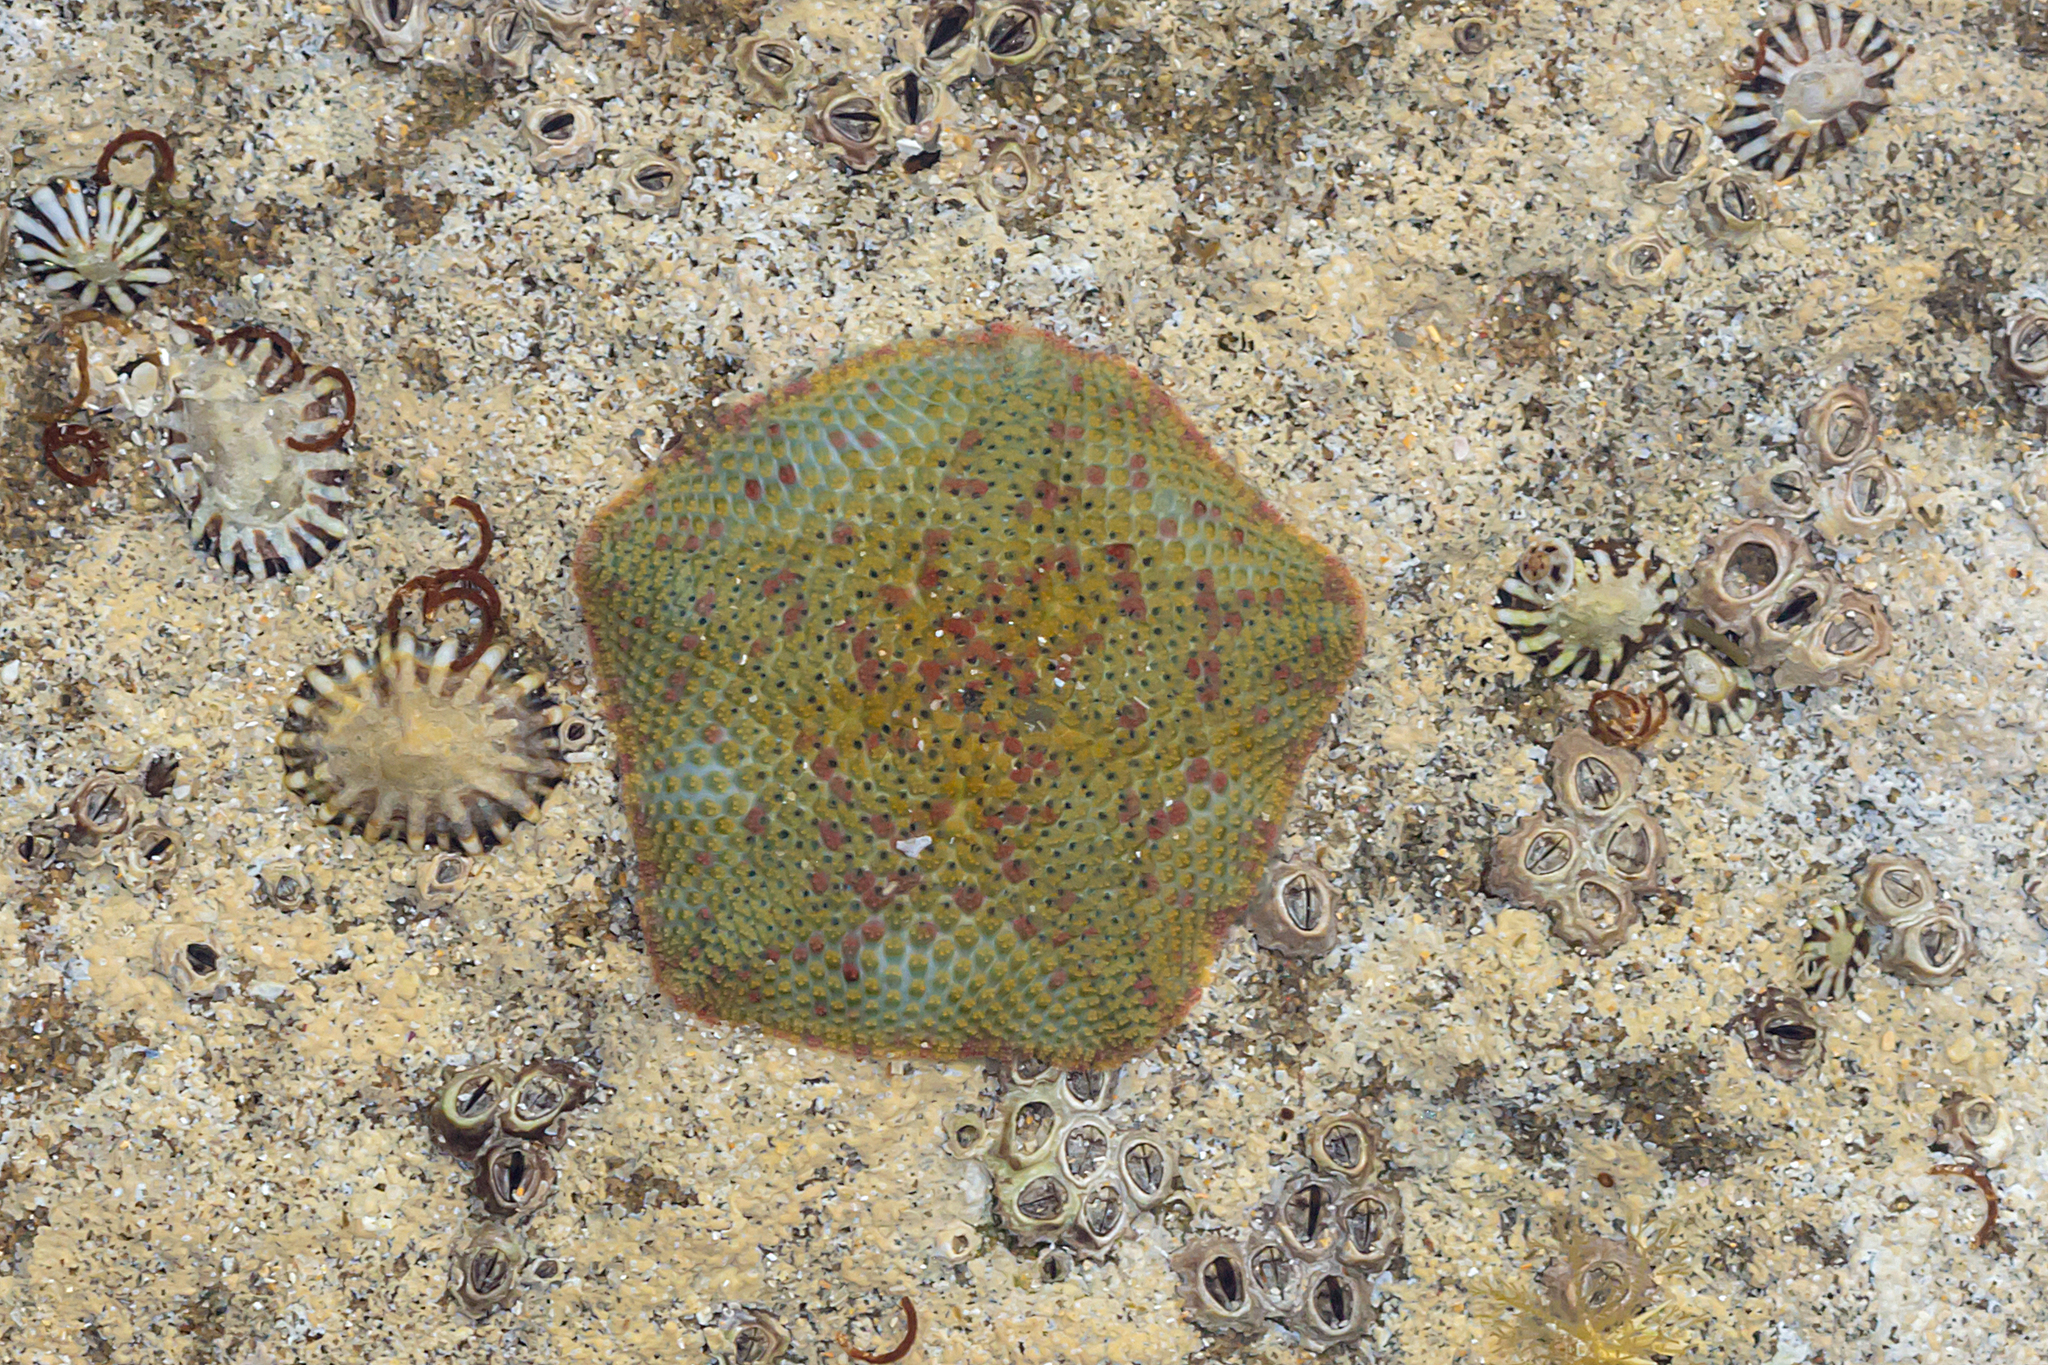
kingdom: Animalia
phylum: Echinodermata
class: Asteroidea
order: Valvatida
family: Asterinidae
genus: Parvulastra
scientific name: Parvulastra exigua
